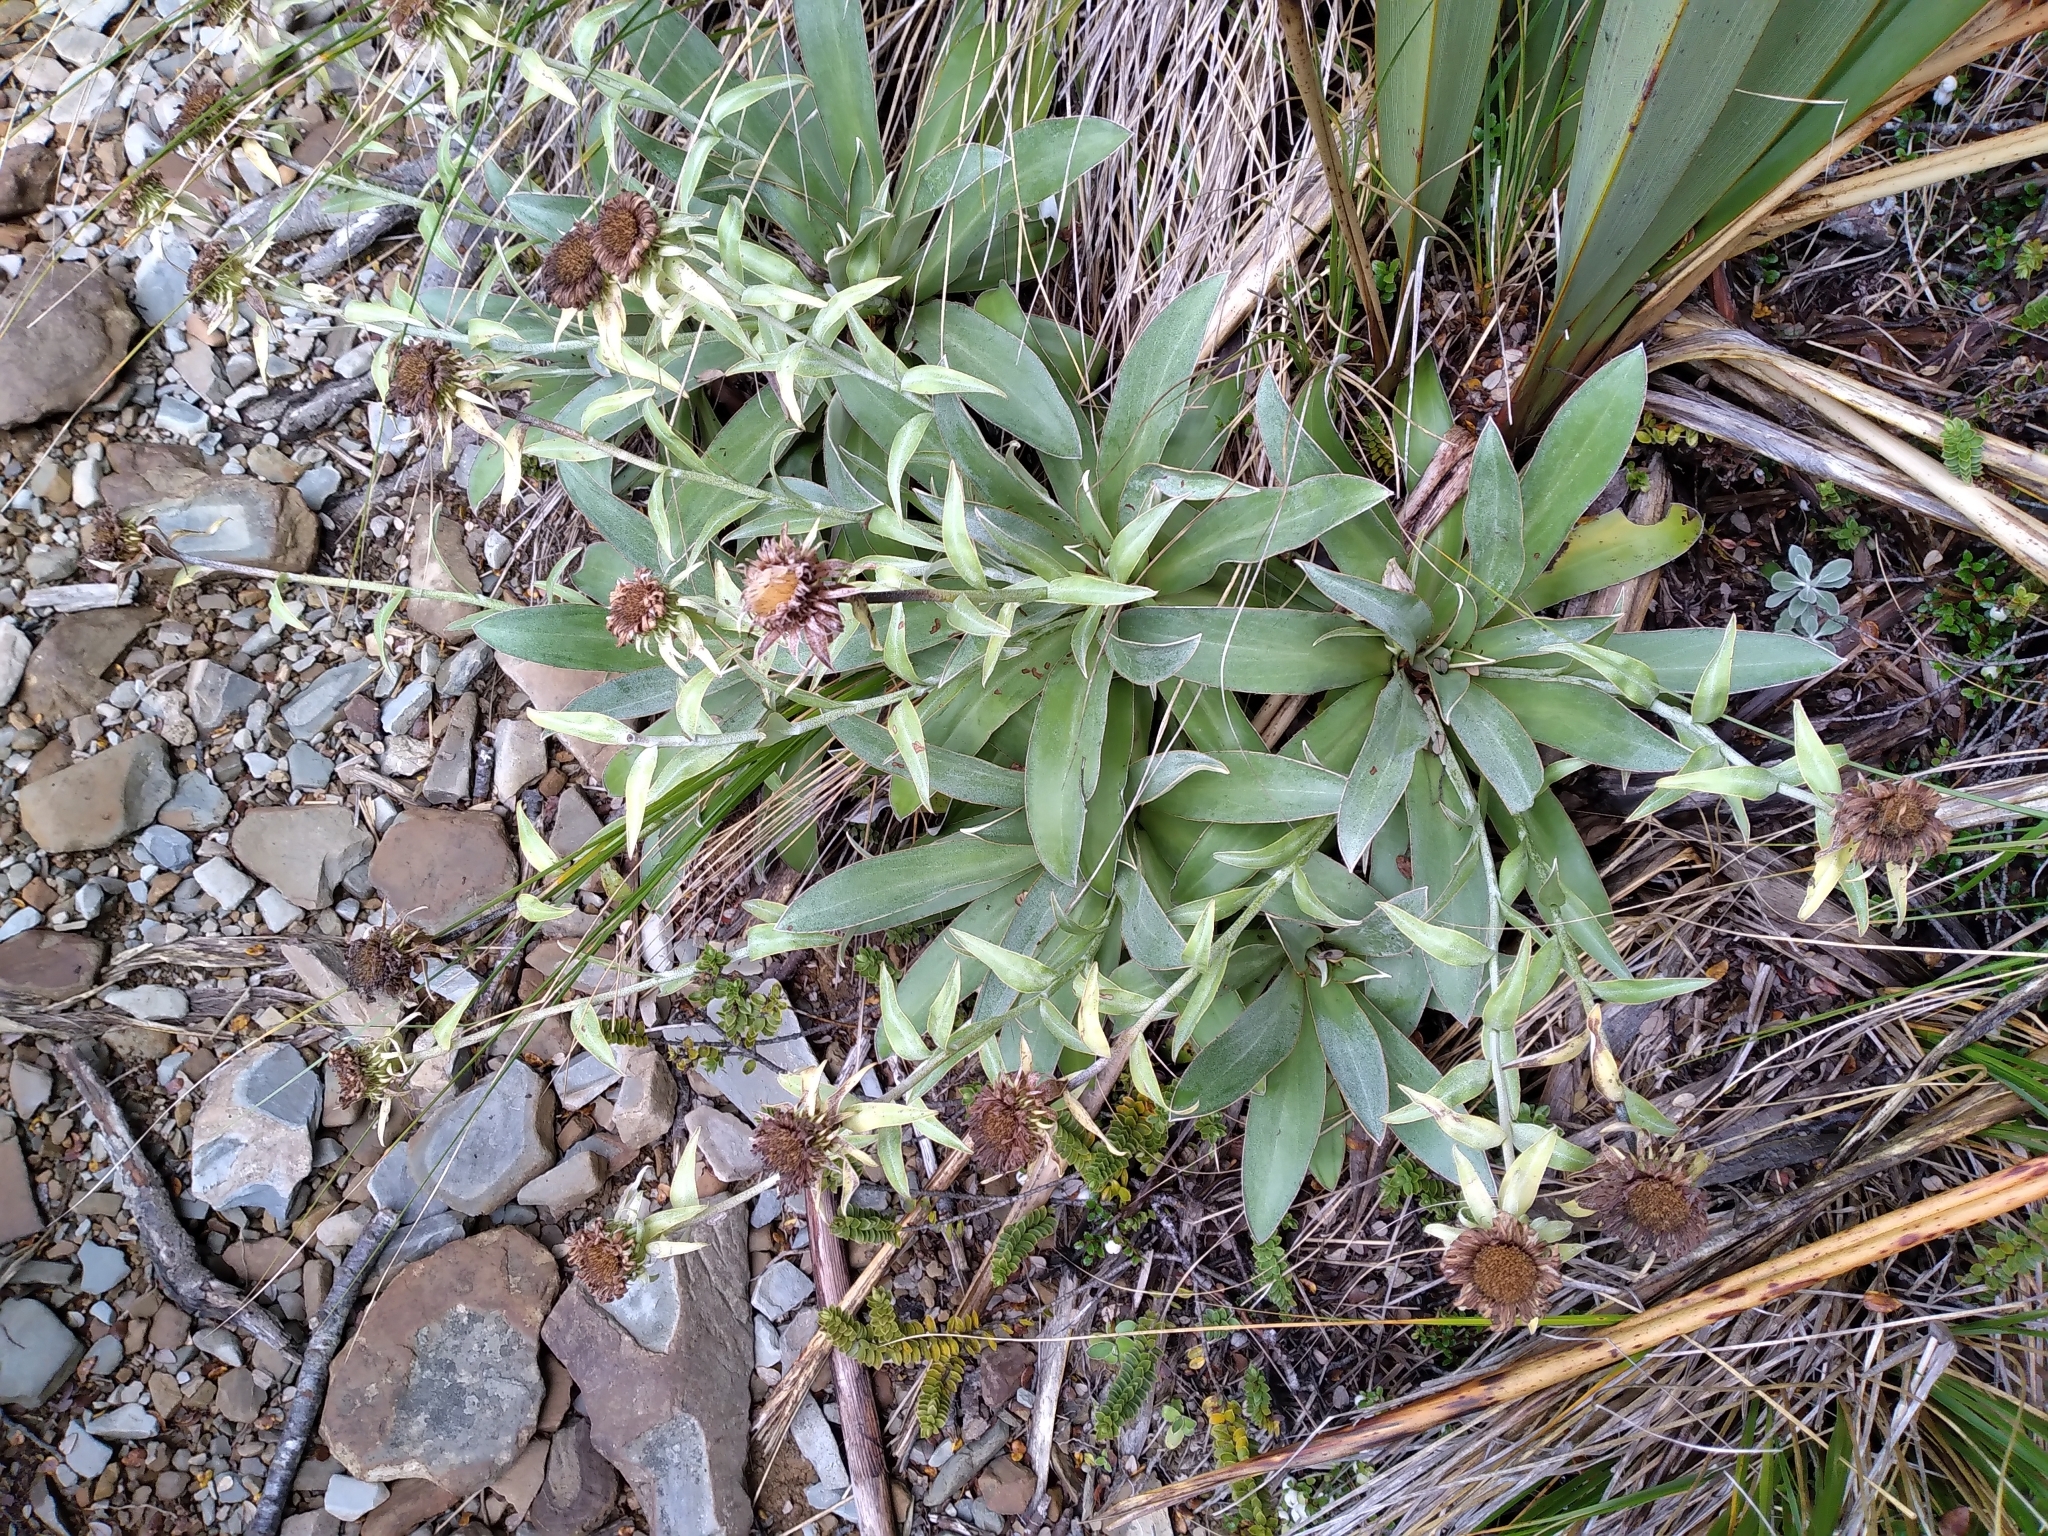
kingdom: Plantae
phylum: Tracheophyta
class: Magnoliopsida
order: Asterales
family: Asteraceae
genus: Celmisia
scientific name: Celmisia dallii
